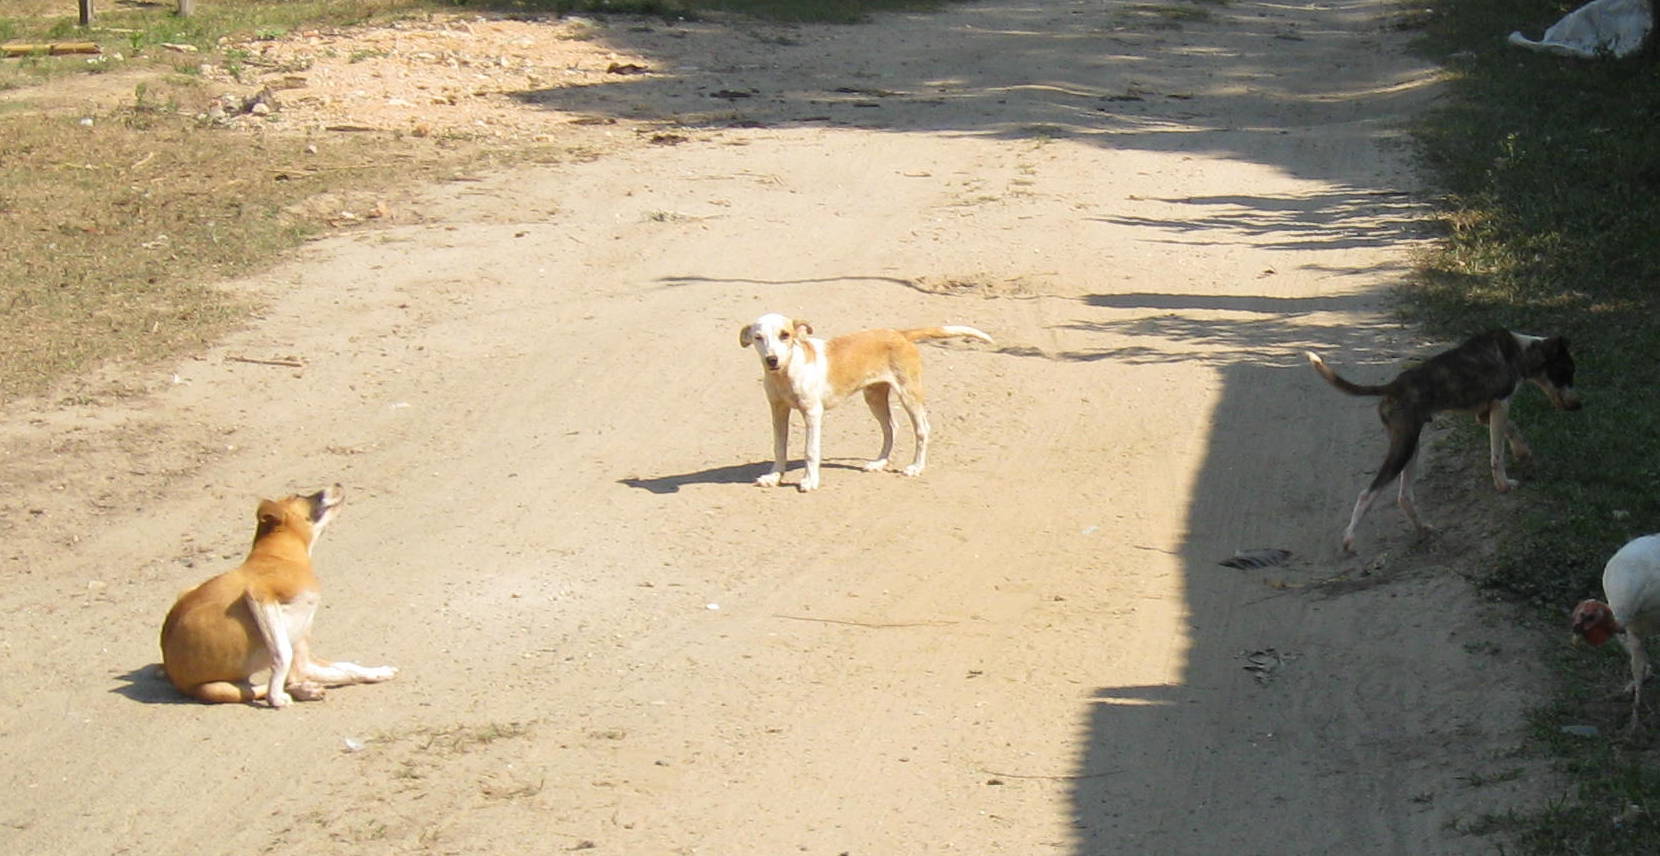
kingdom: Animalia
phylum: Chordata
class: Mammalia
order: Carnivora
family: Canidae
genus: Canis
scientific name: Canis lupus
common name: Gray wolf
